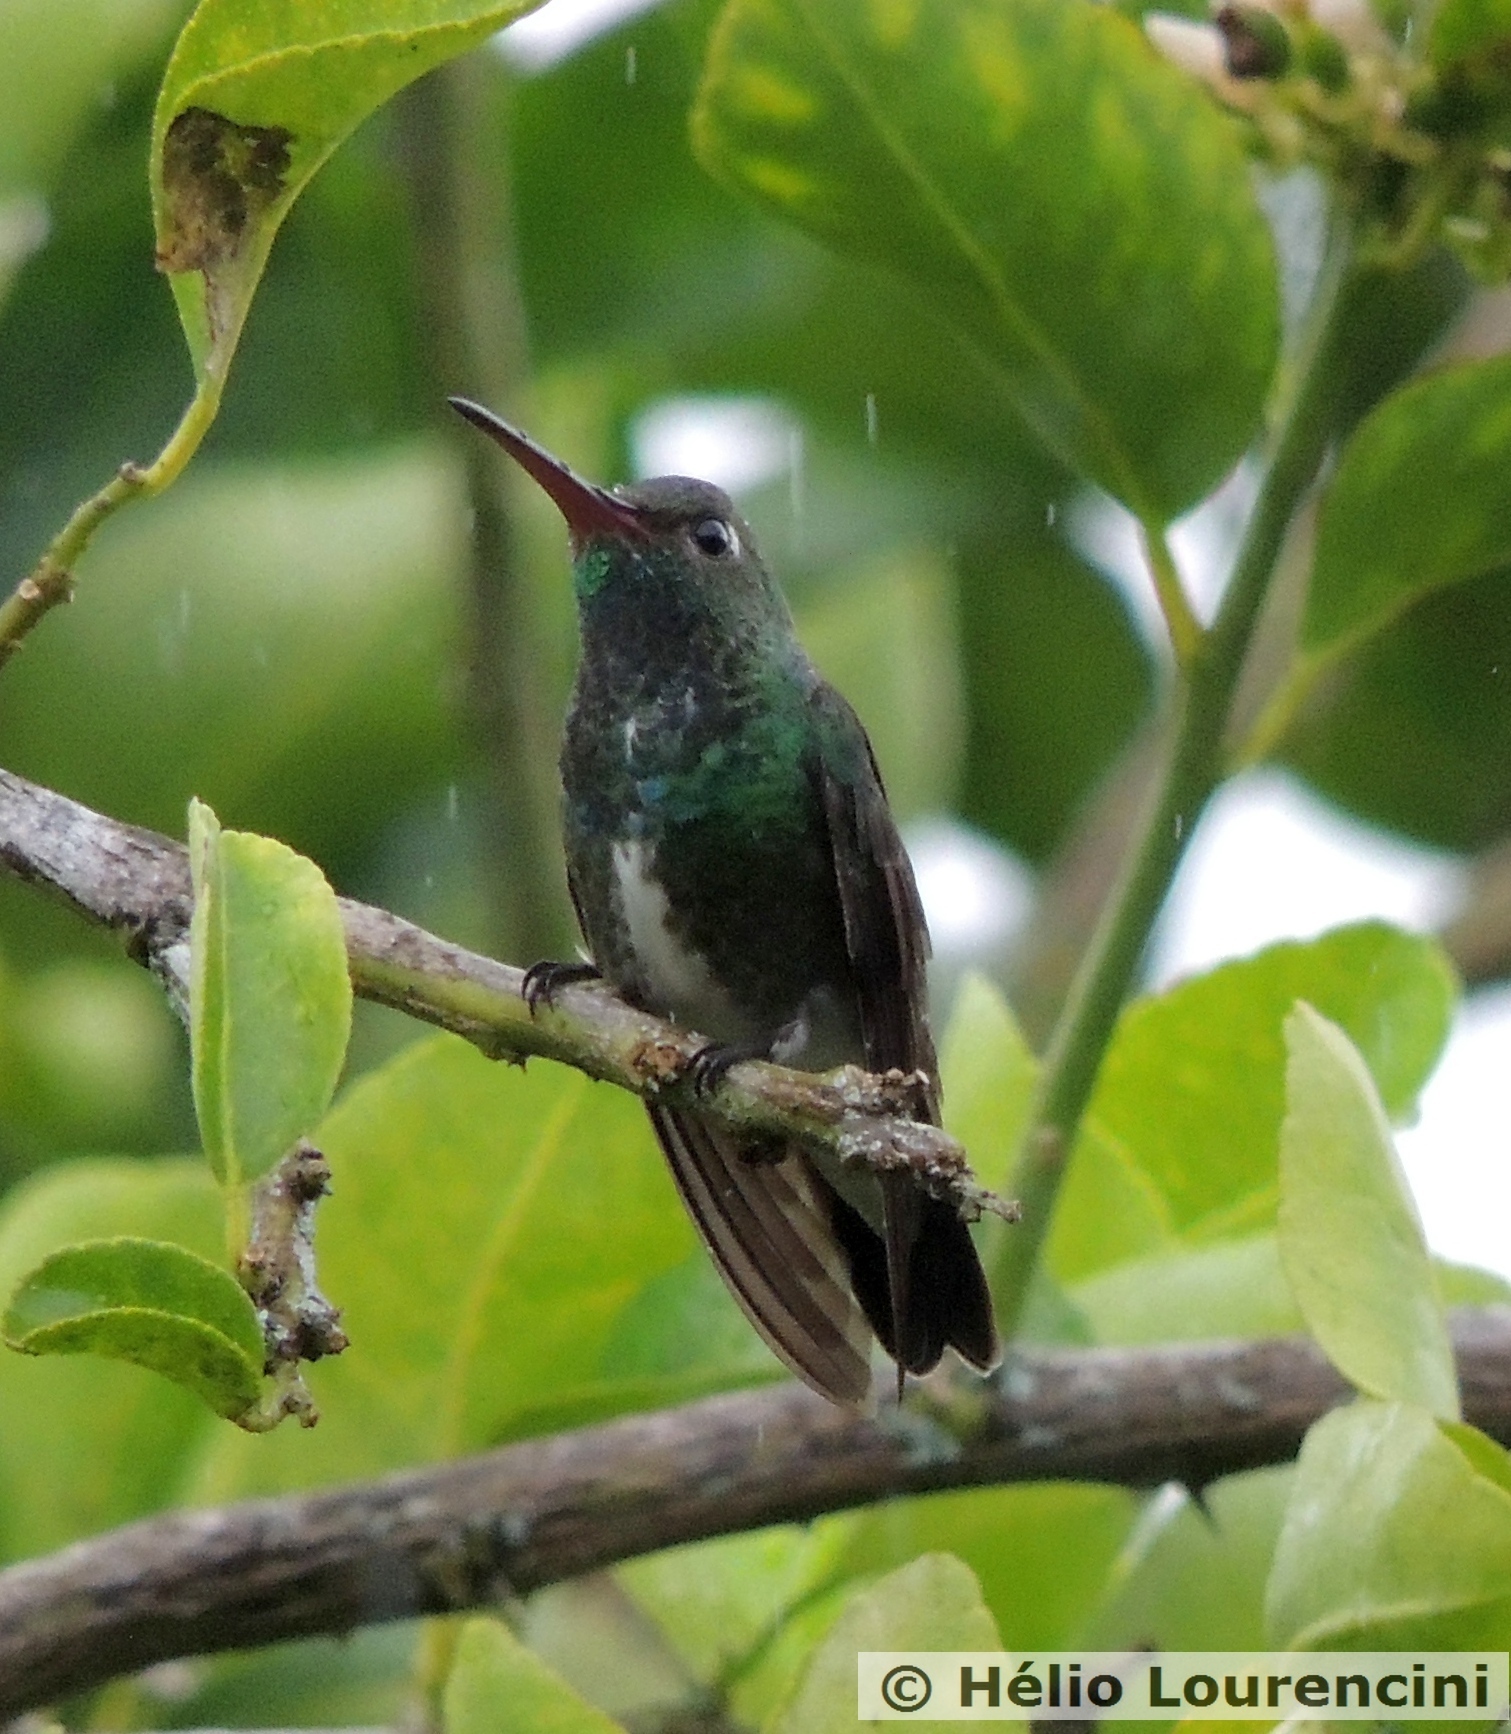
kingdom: Animalia
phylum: Chordata
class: Aves
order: Apodiformes
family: Trochilidae
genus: Chionomesa
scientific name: Chionomesa fimbriata
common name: Glittering-throated emerald
